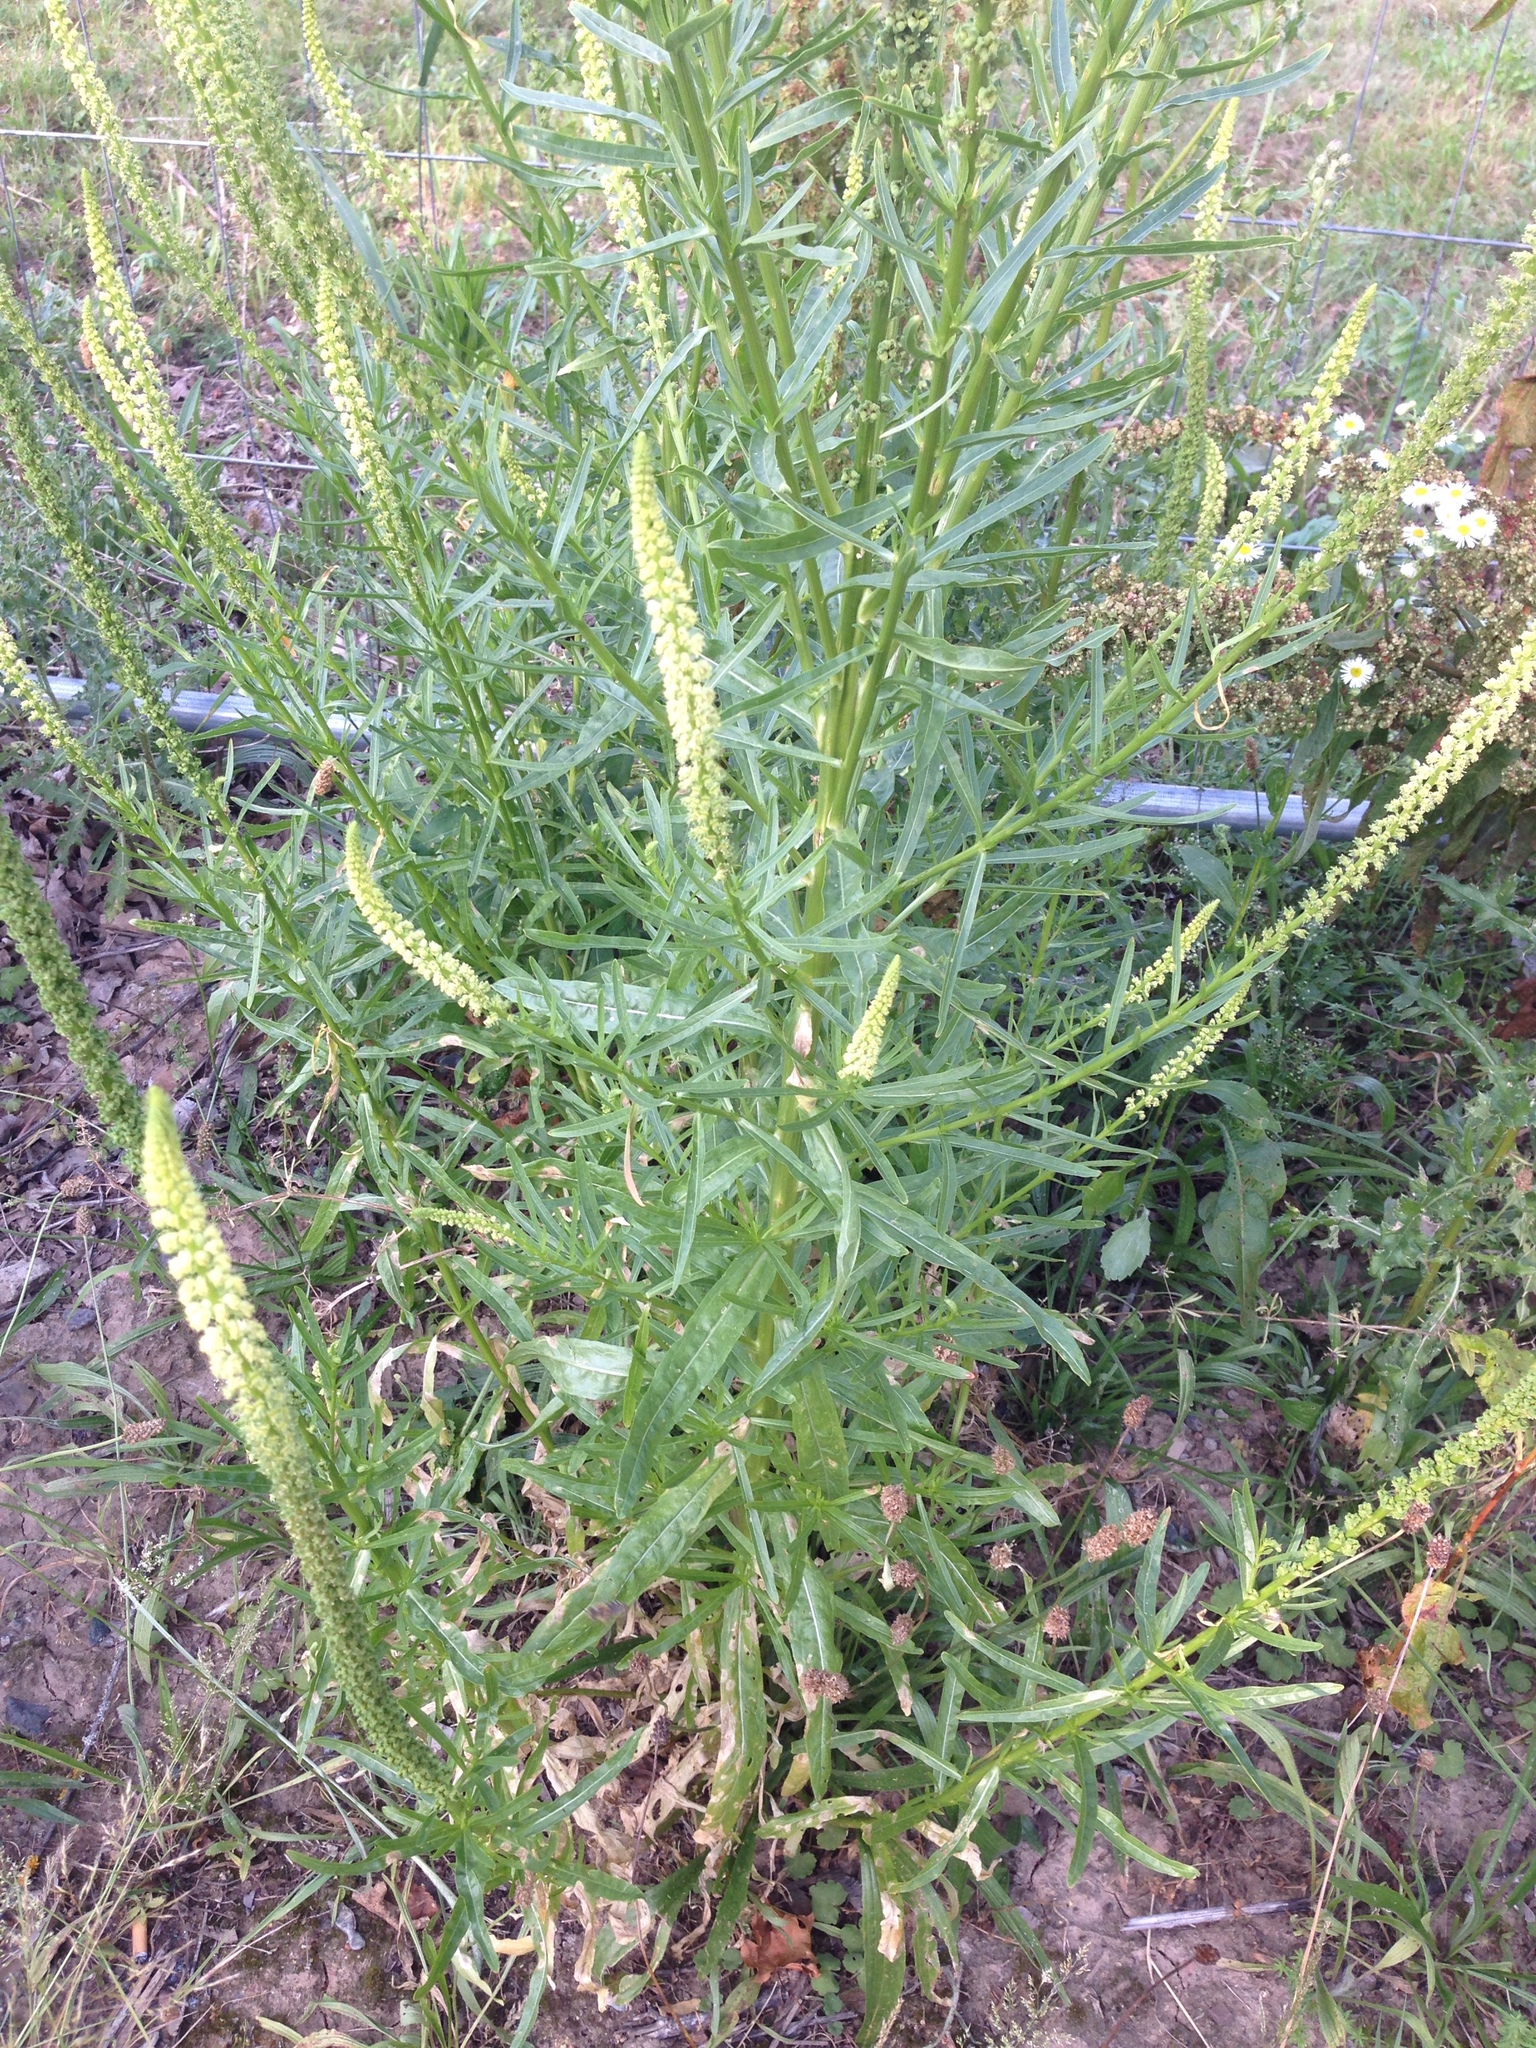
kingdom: Plantae
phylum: Tracheophyta
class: Magnoliopsida
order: Brassicales
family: Resedaceae
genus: Reseda
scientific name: Reseda luteola
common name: Weld
